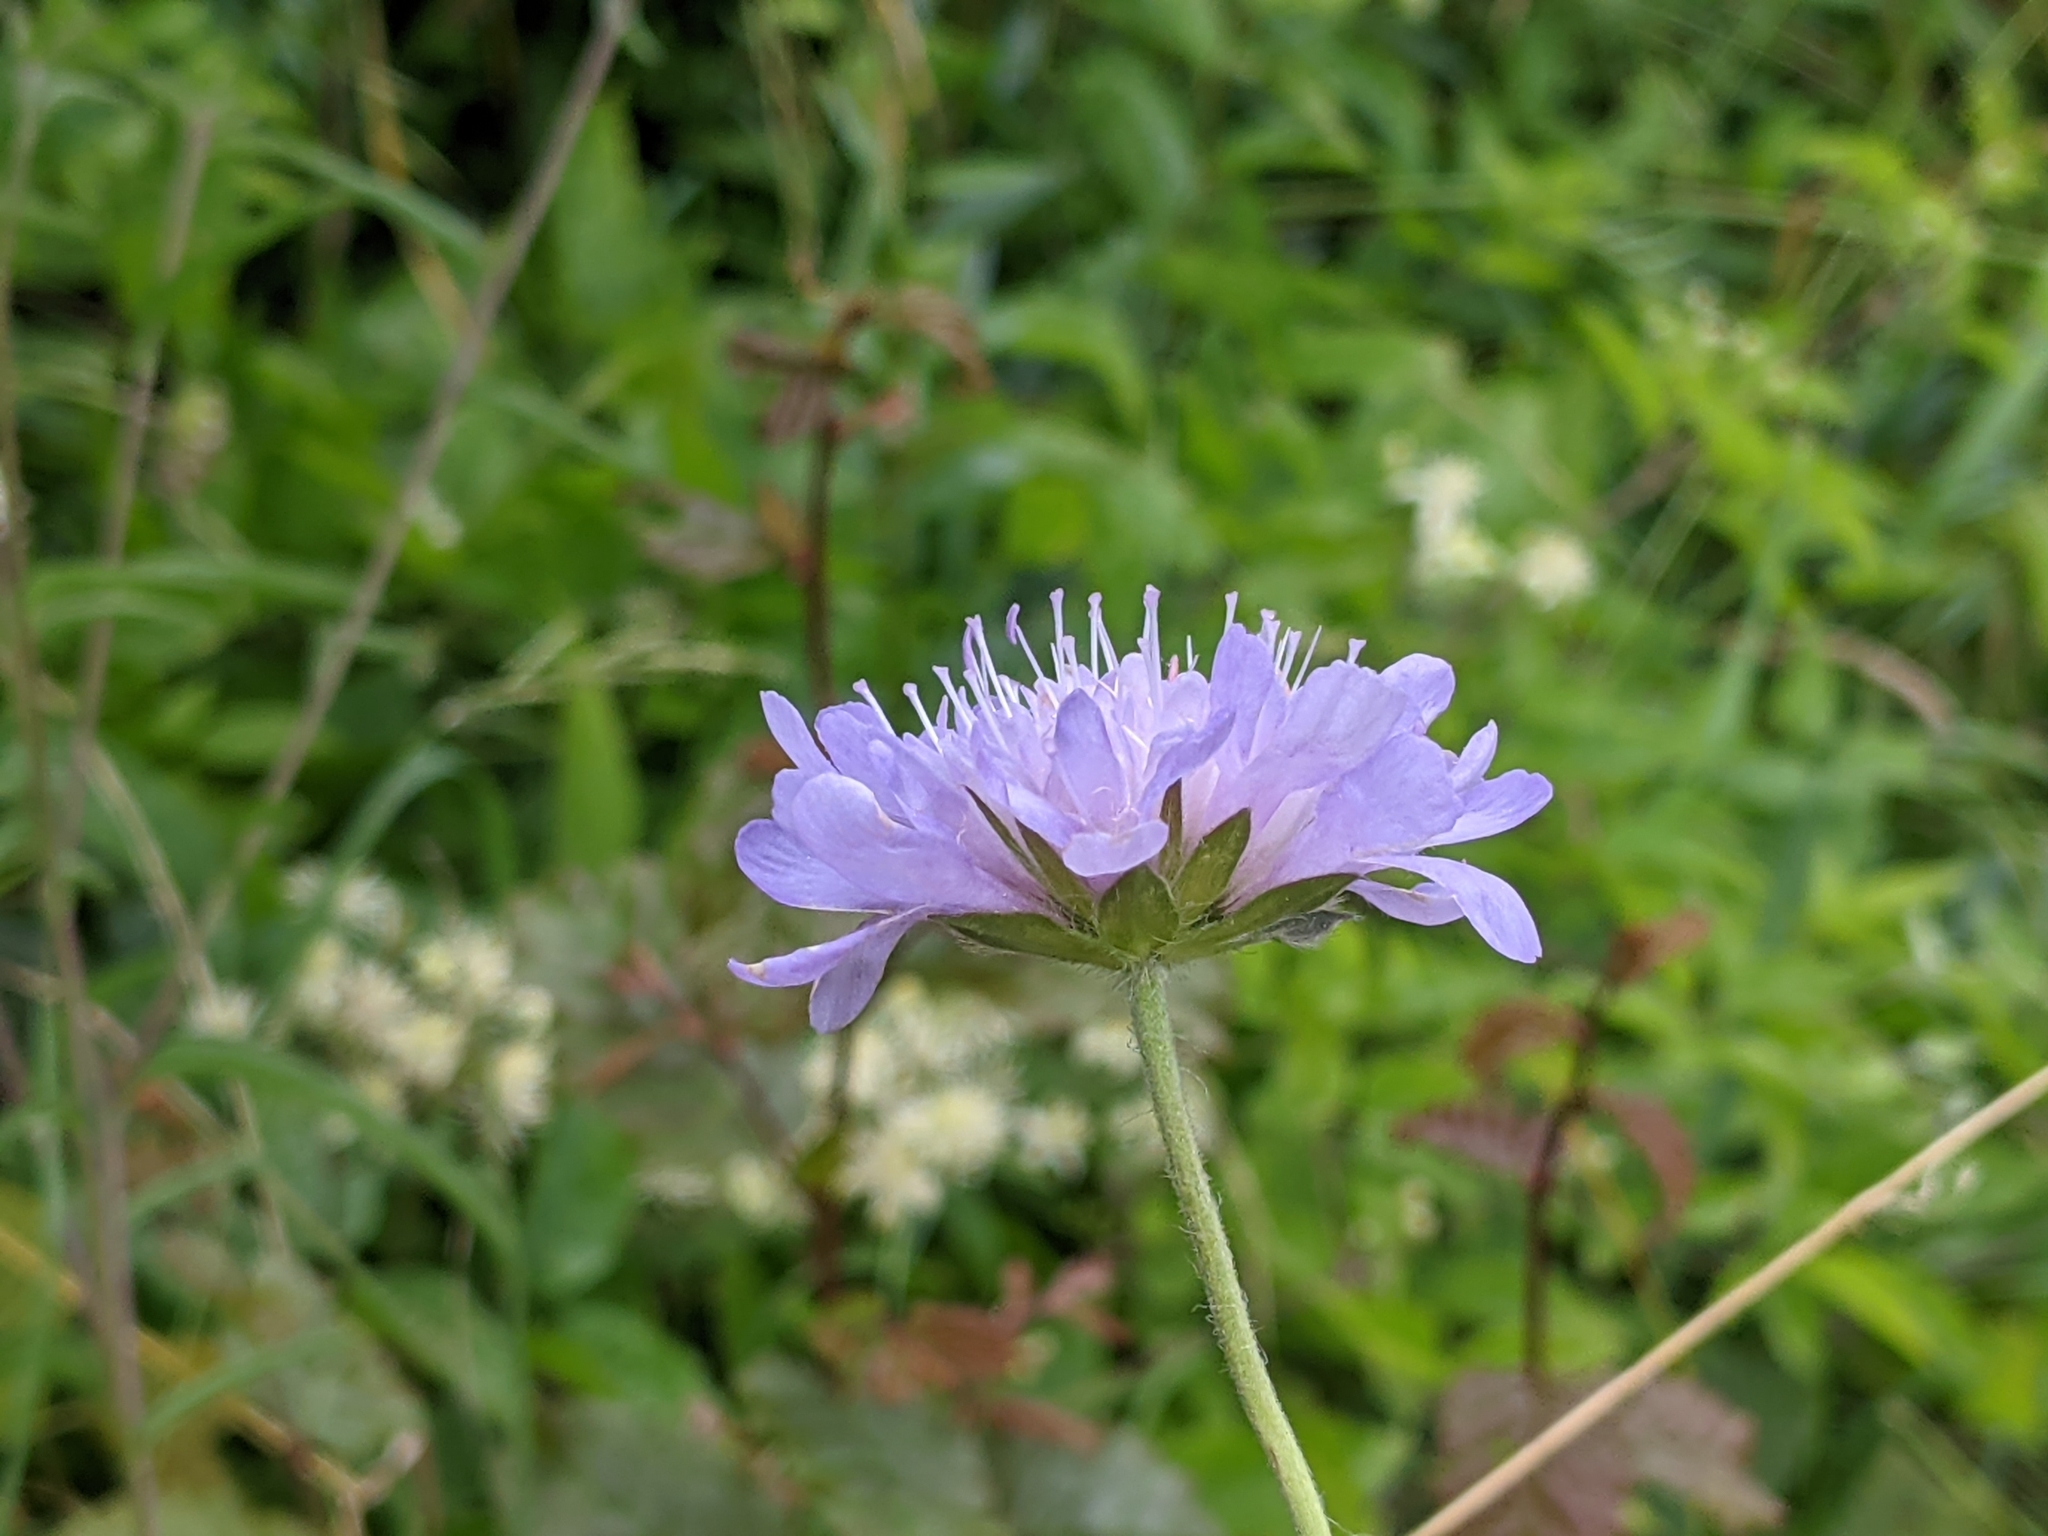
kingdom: Plantae
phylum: Tracheophyta
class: Magnoliopsida
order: Dipsacales
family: Caprifoliaceae
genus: Knautia
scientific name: Knautia arvensis
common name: Field scabiosa
